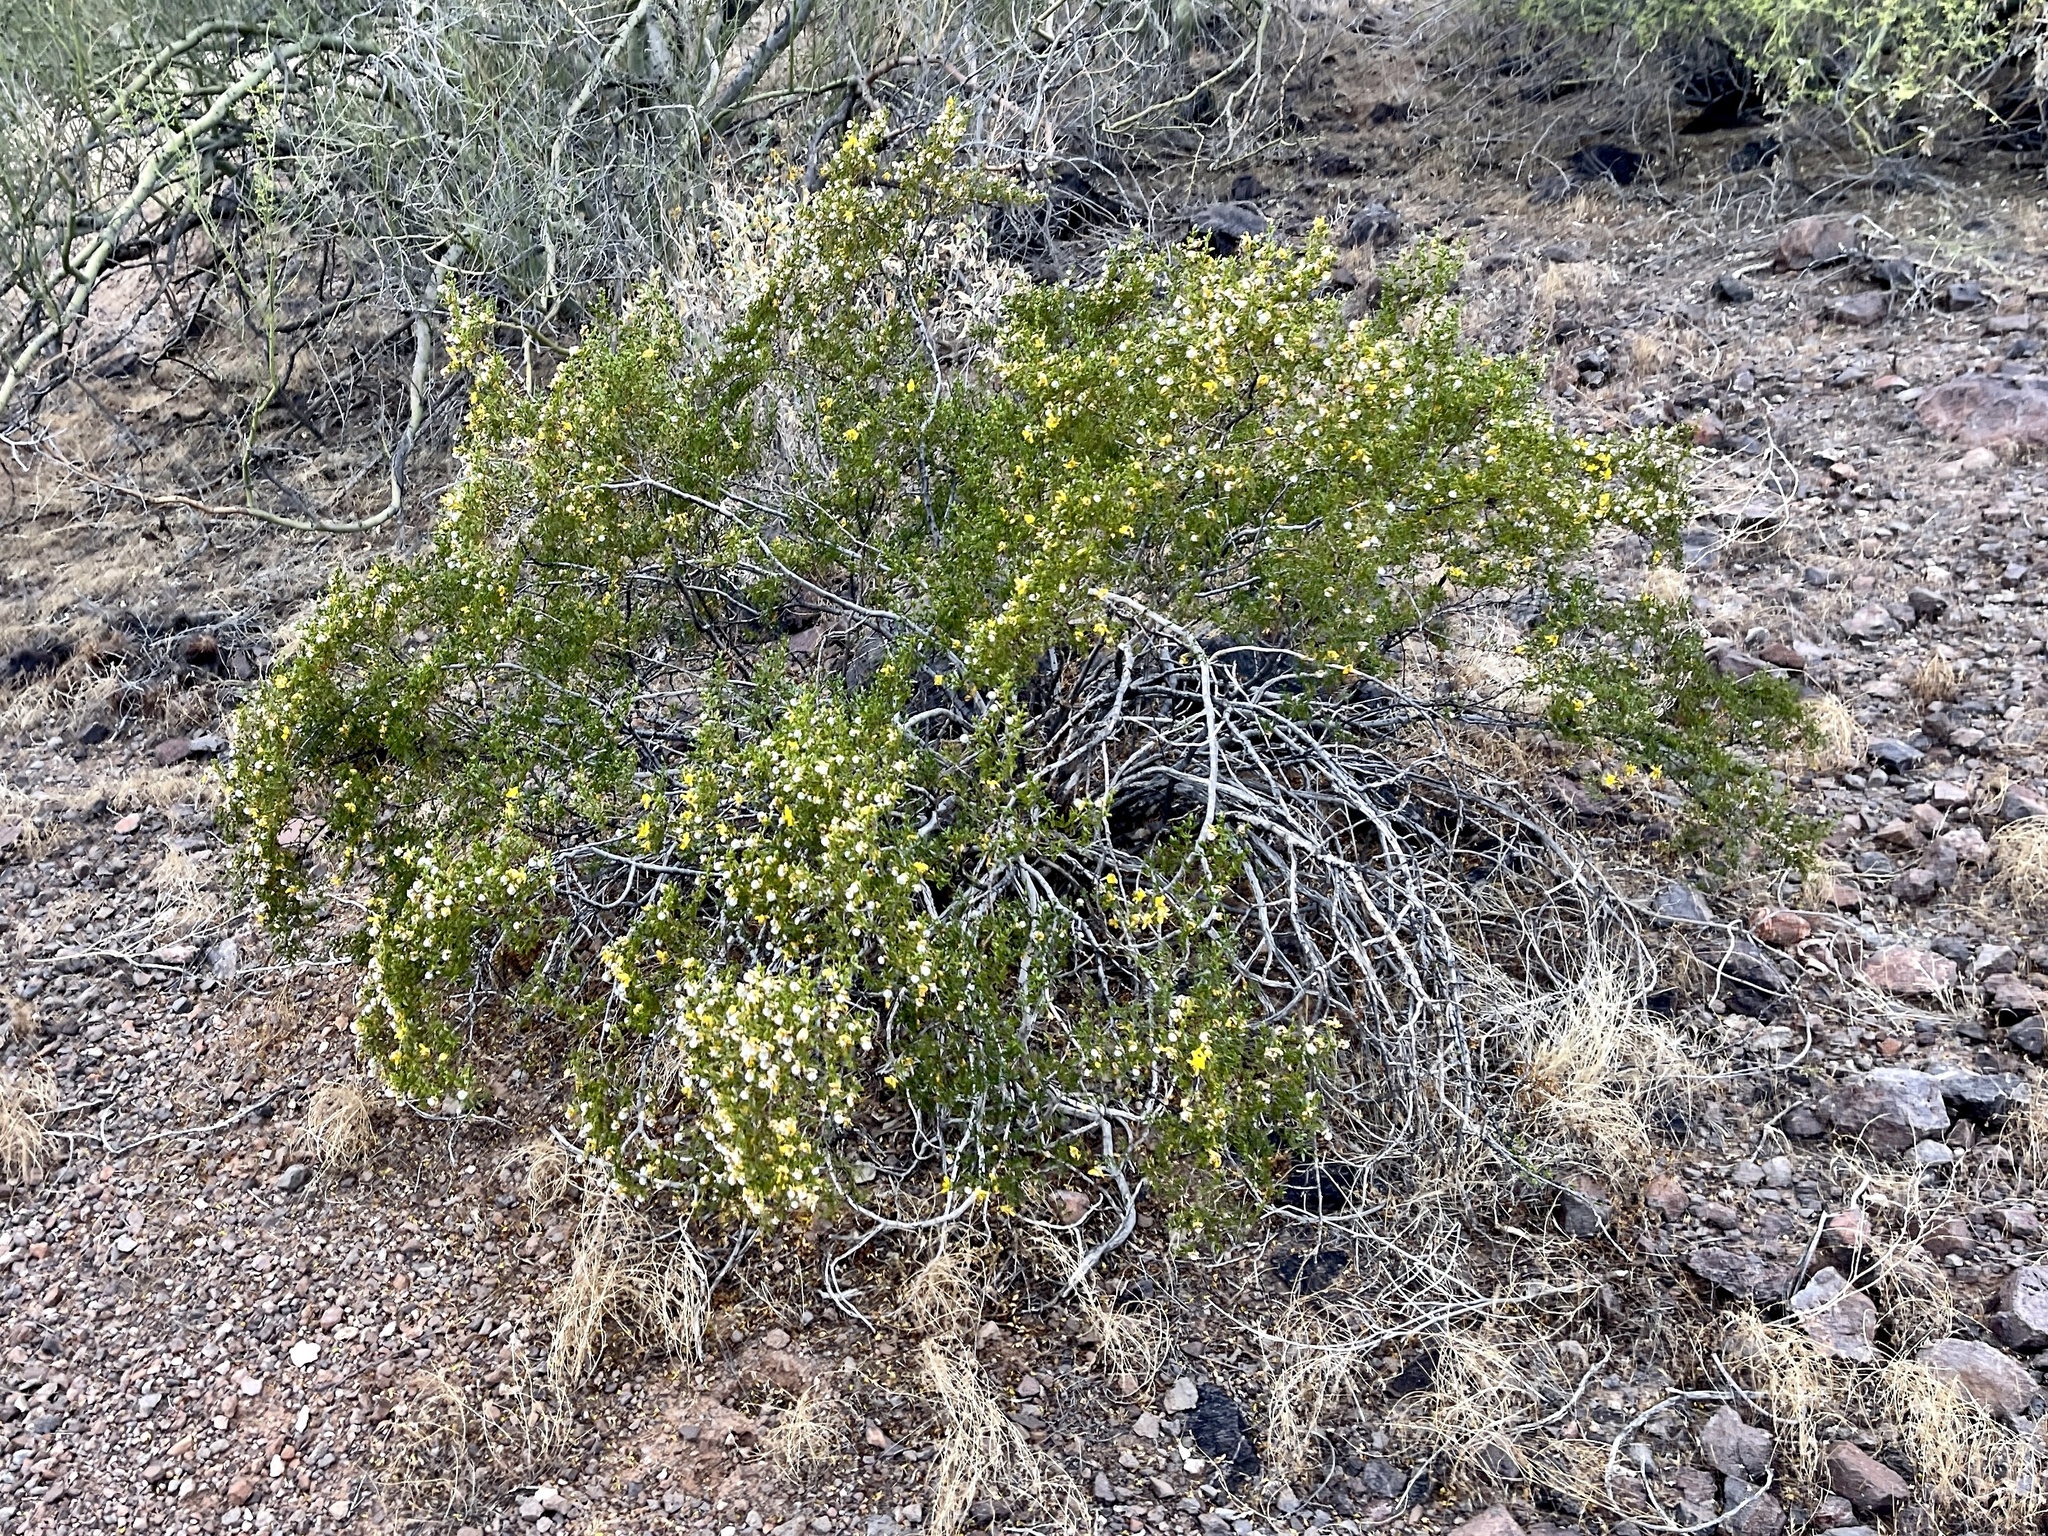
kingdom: Plantae
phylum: Tracheophyta
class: Magnoliopsida
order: Zygophyllales
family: Zygophyllaceae
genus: Larrea
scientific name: Larrea tridentata
